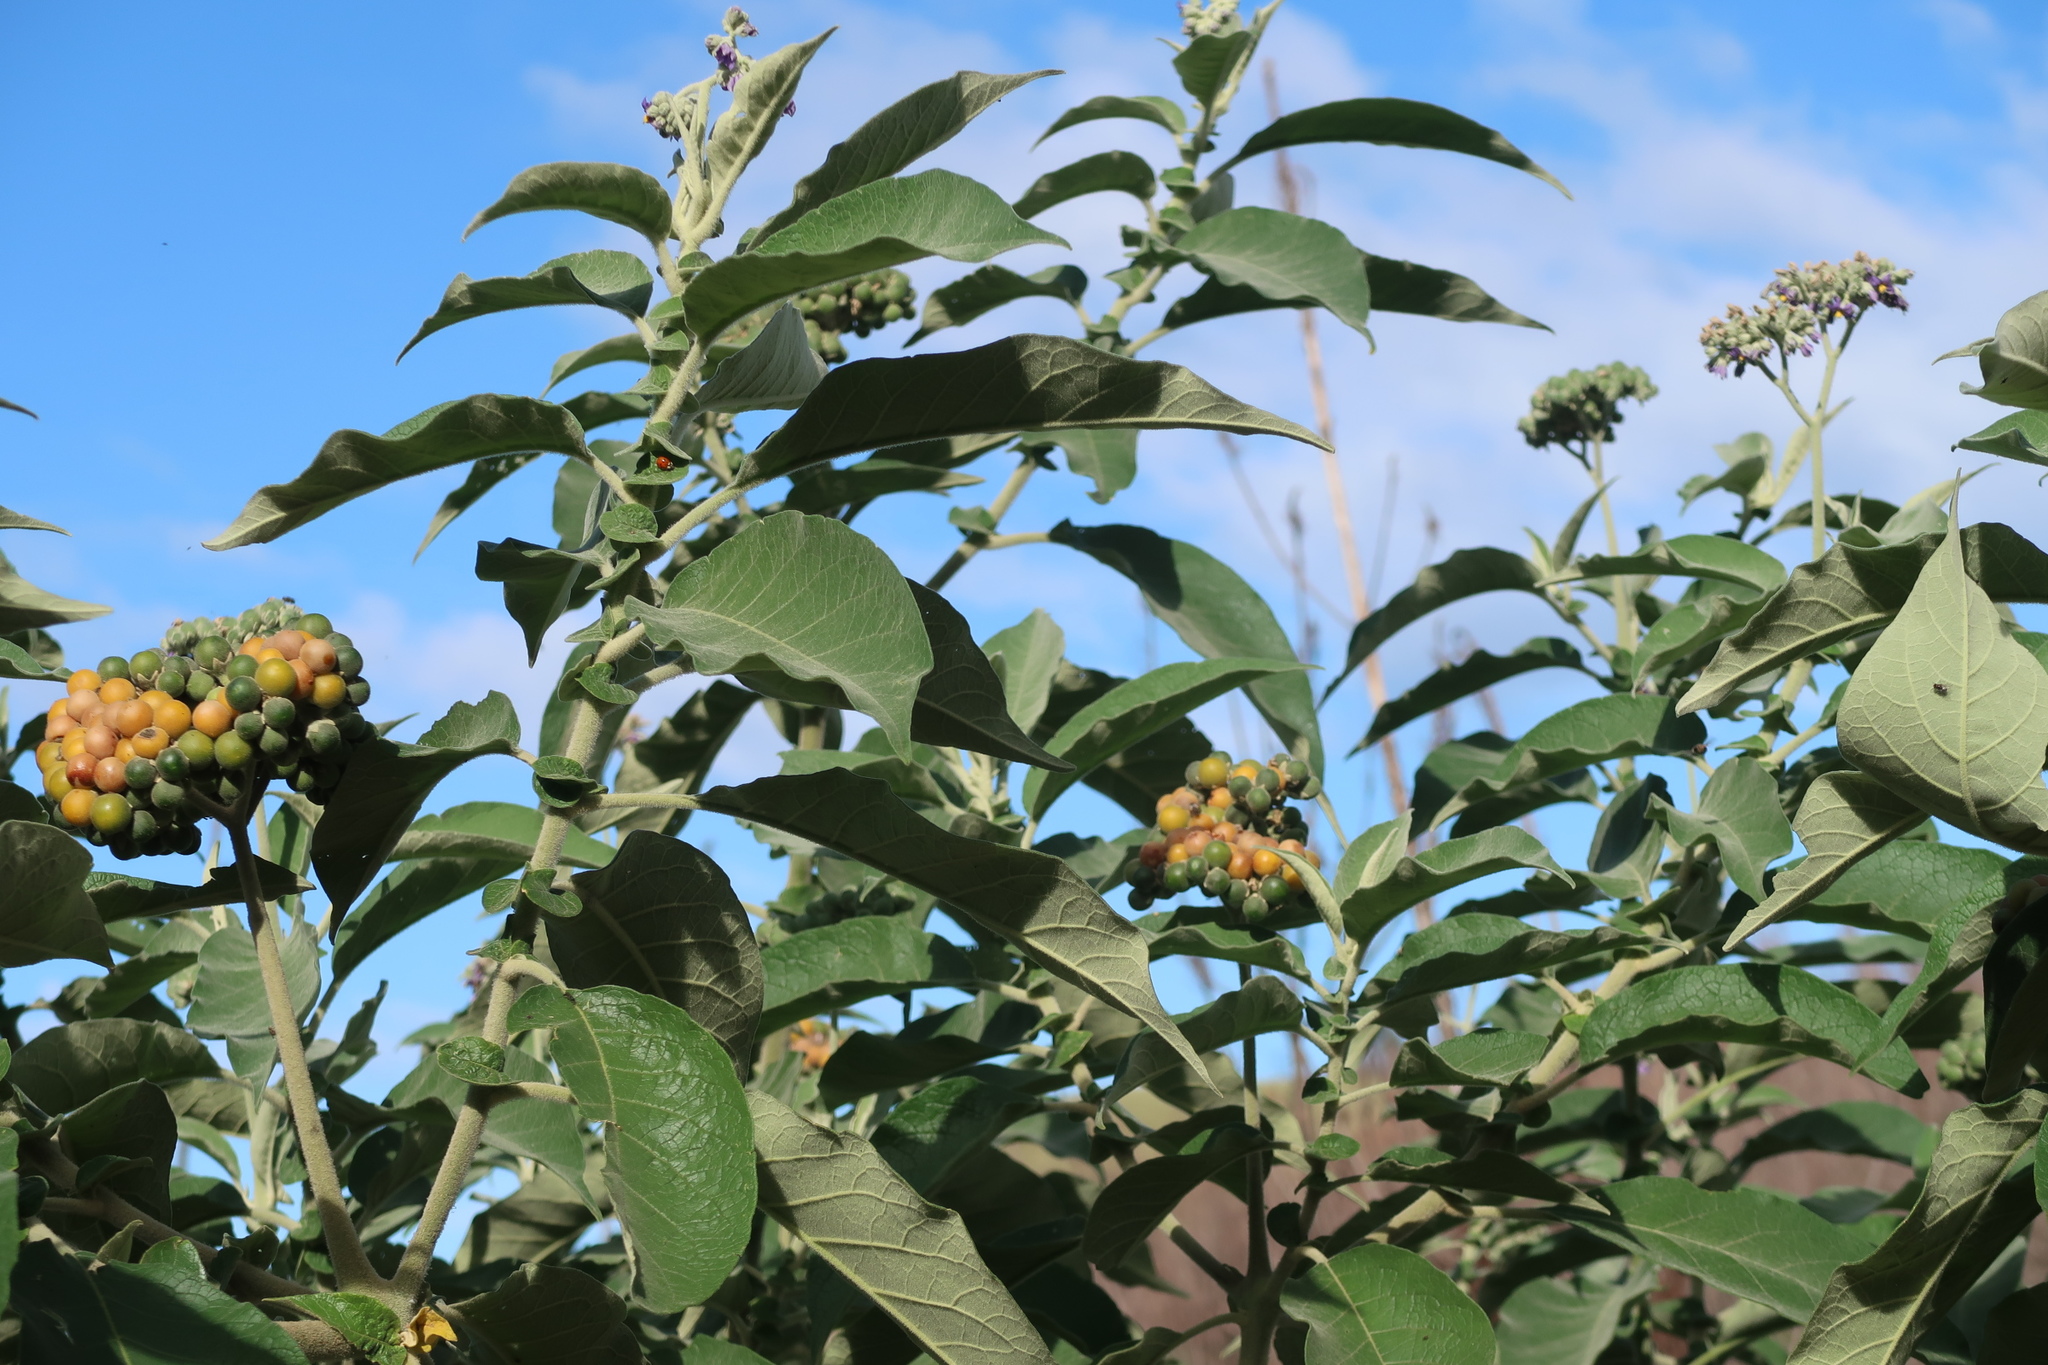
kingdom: Plantae
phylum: Tracheophyta
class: Magnoliopsida
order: Solanales
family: Solanaceae
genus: Solanum
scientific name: Solanum mauritianum
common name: Earleaf nightshade
